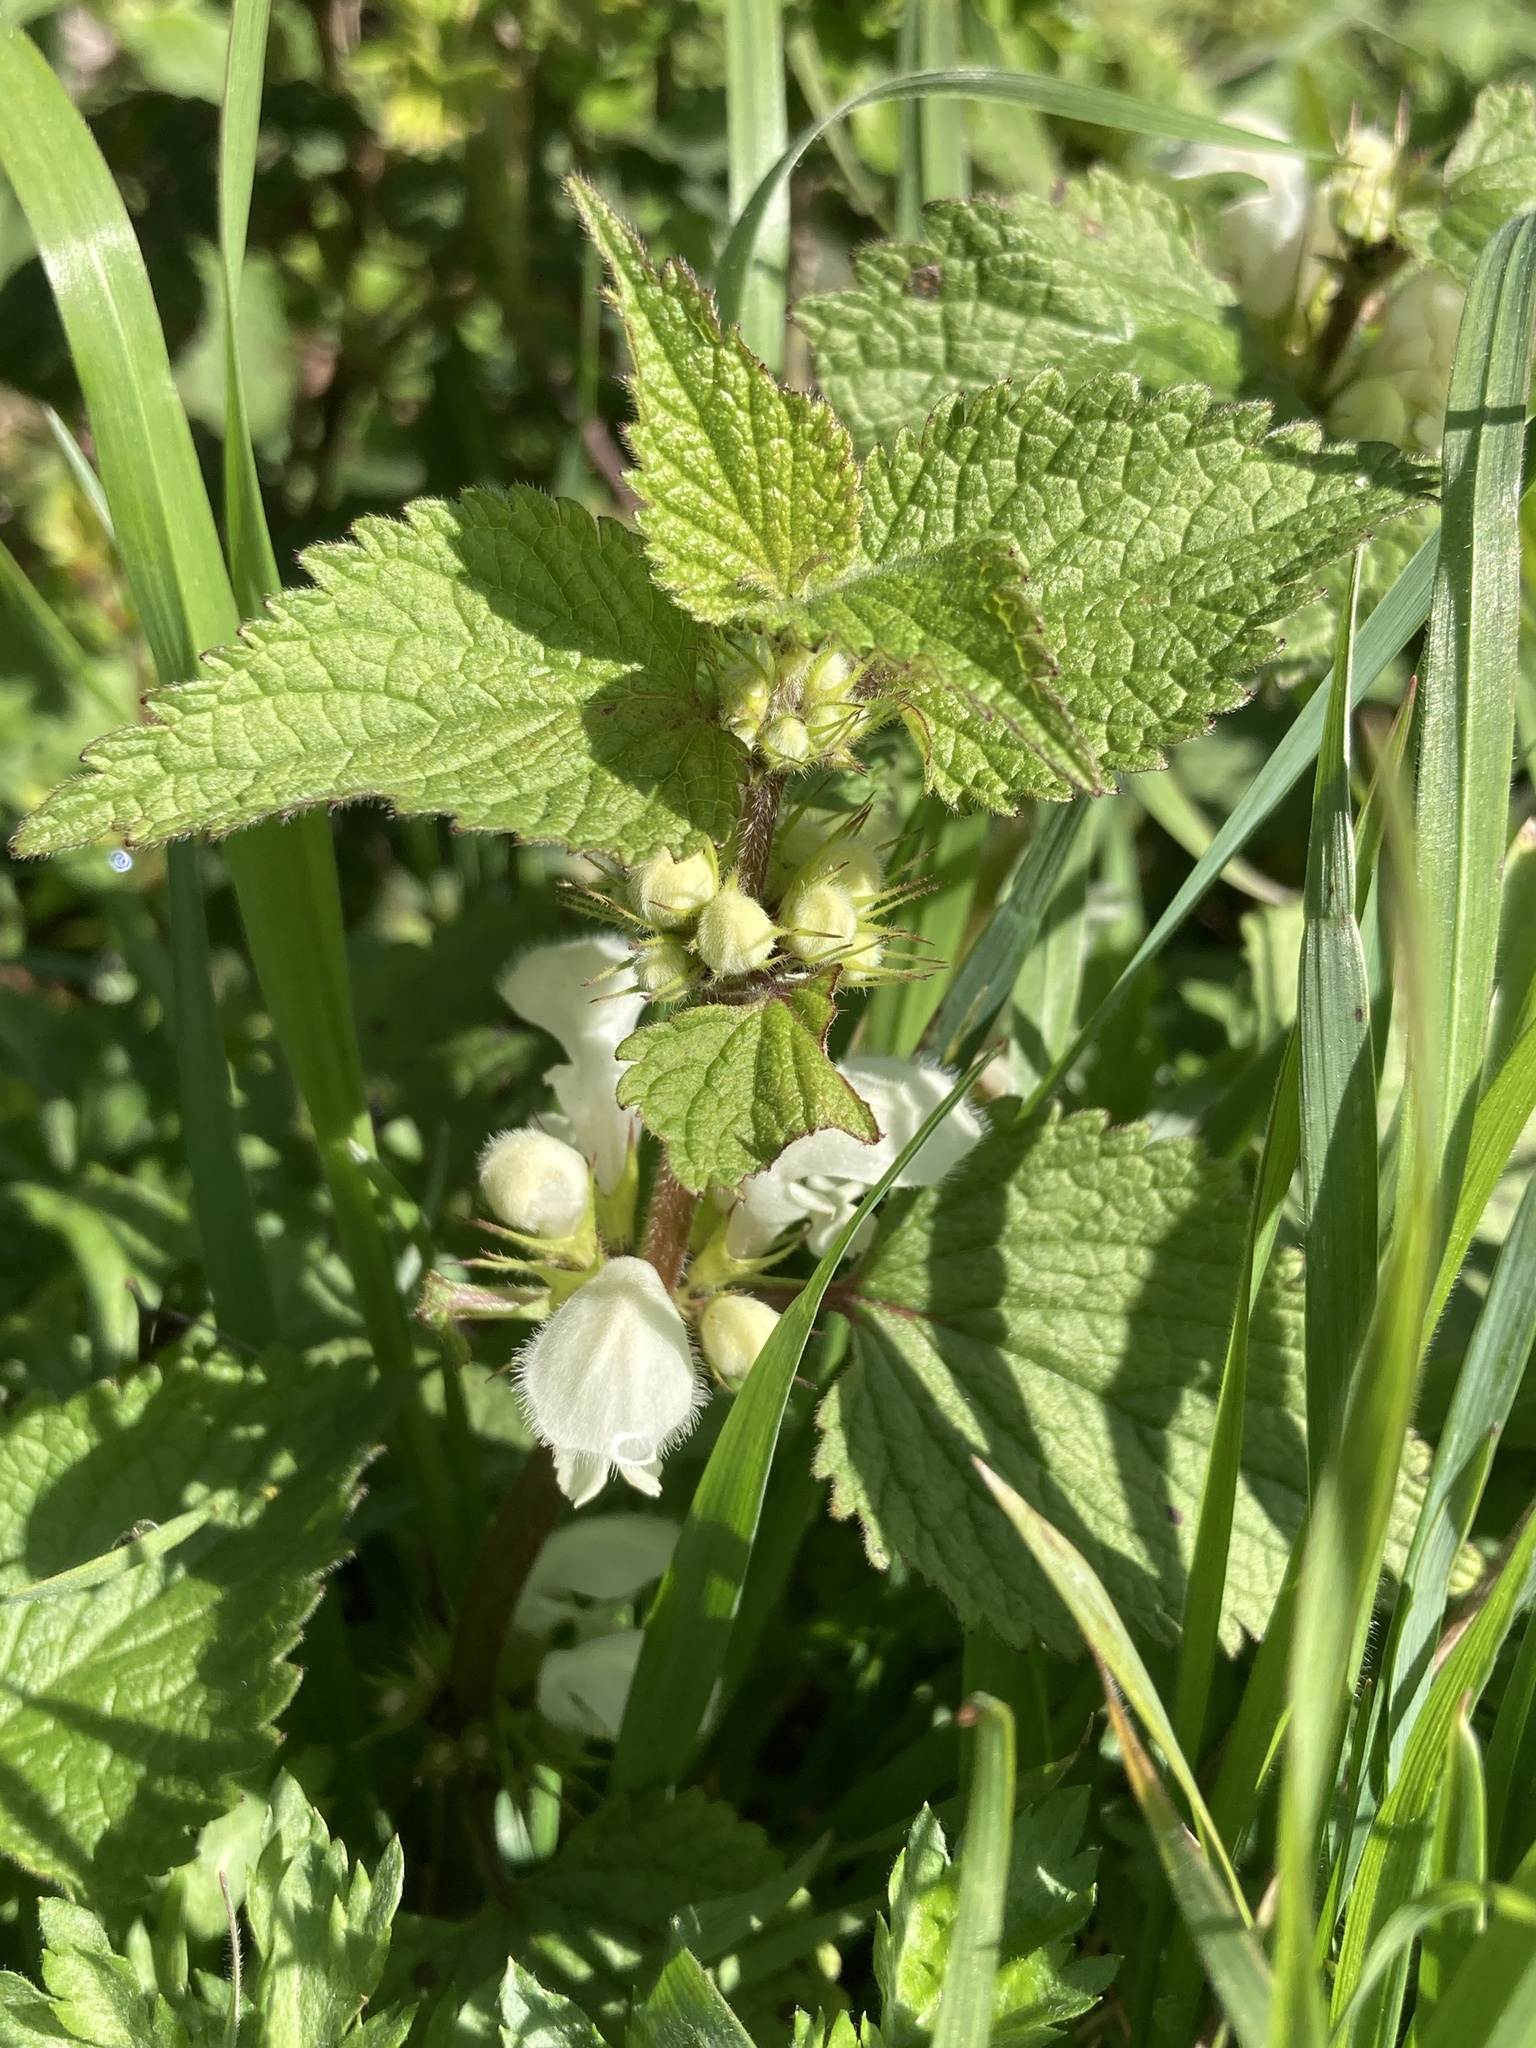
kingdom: Plantae
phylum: Tracheophyta
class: Magnoliopsida
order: Lamiales
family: Lamiaceae
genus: Lamium
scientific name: Lamium album
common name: White dead-nettle
